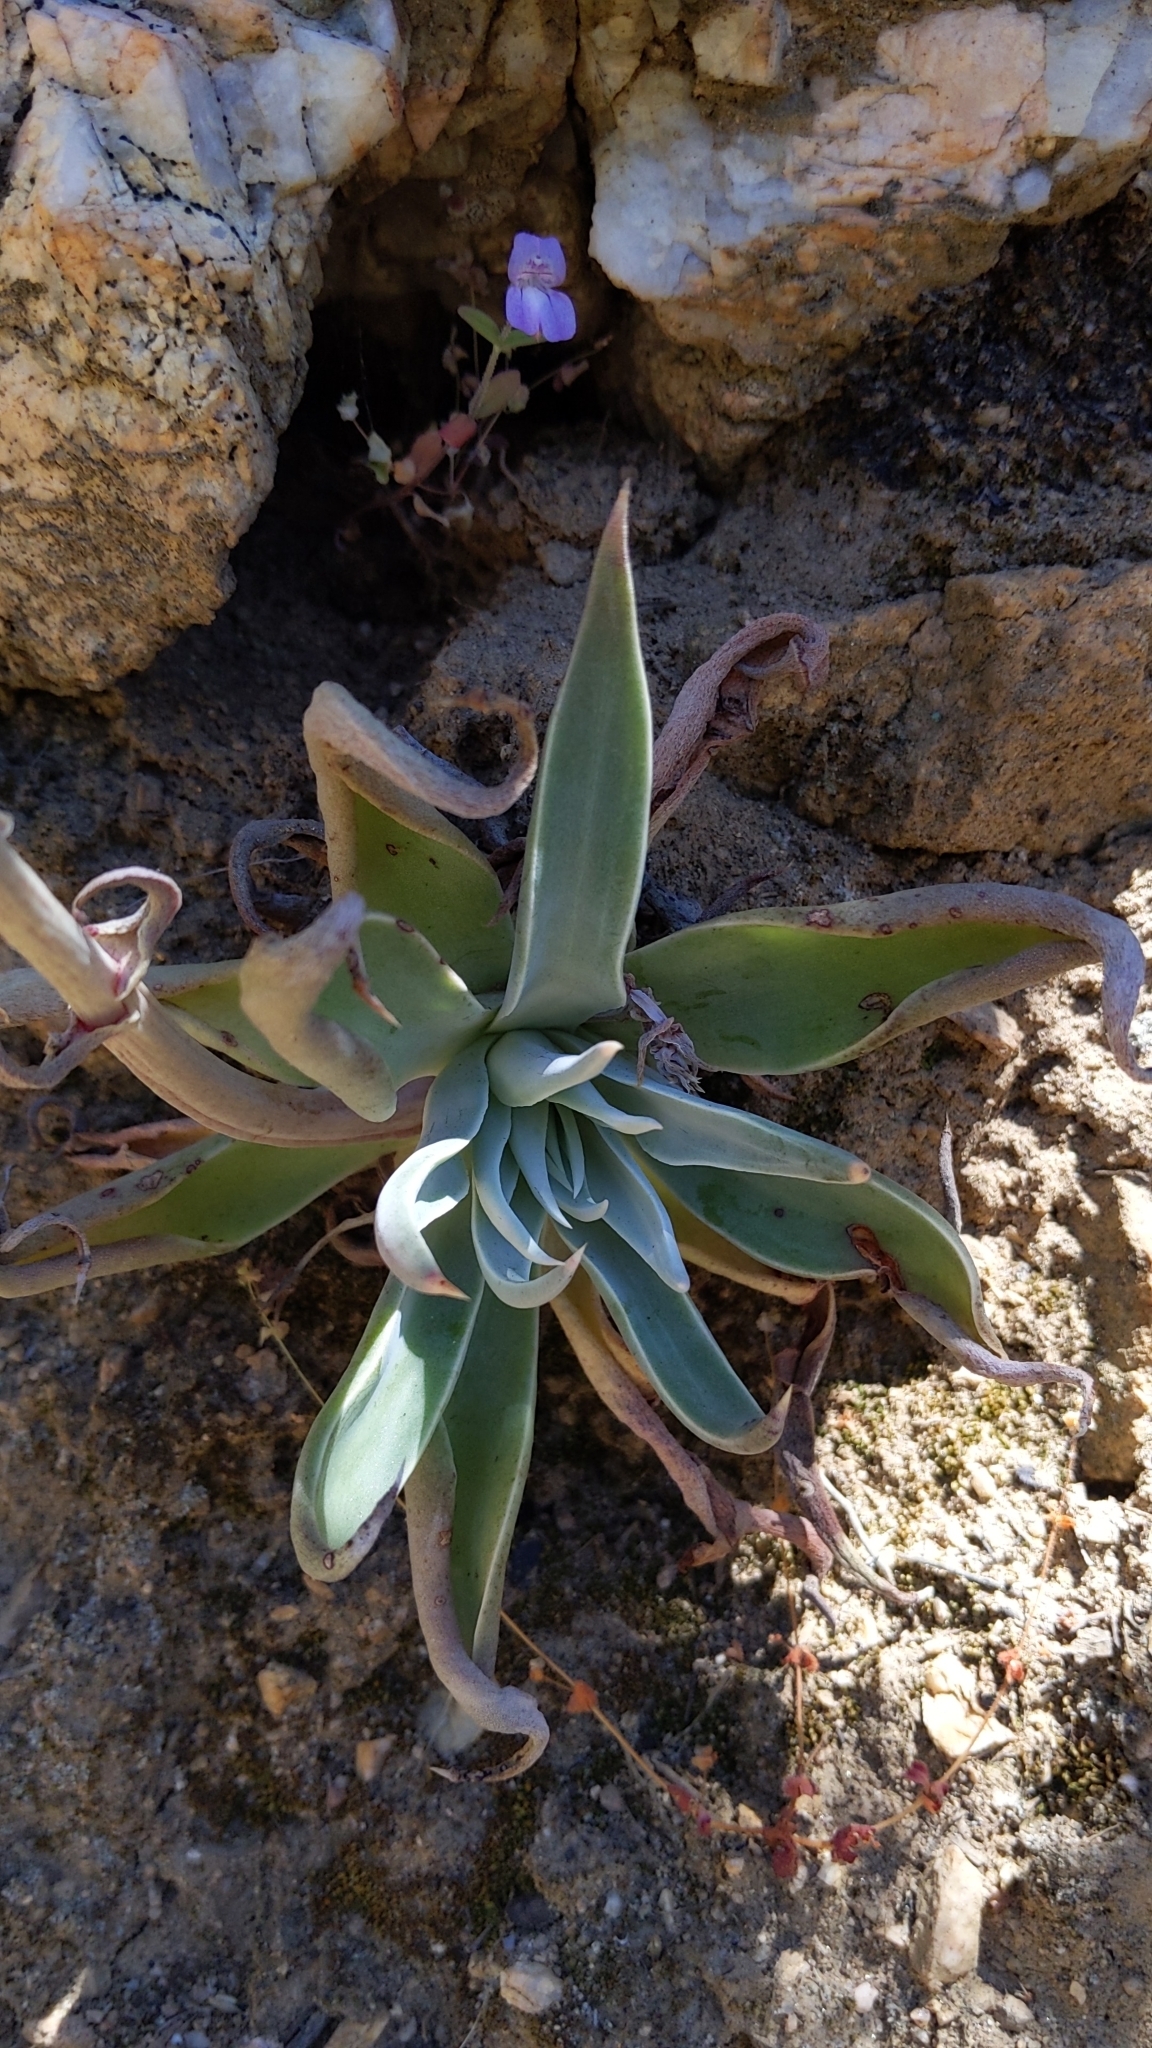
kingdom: Plantae
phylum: Tracheophyta
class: Magnoliopsida
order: Saxifragales
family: Crassulaceae
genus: Dudleya
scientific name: Dudleya lanceolata
